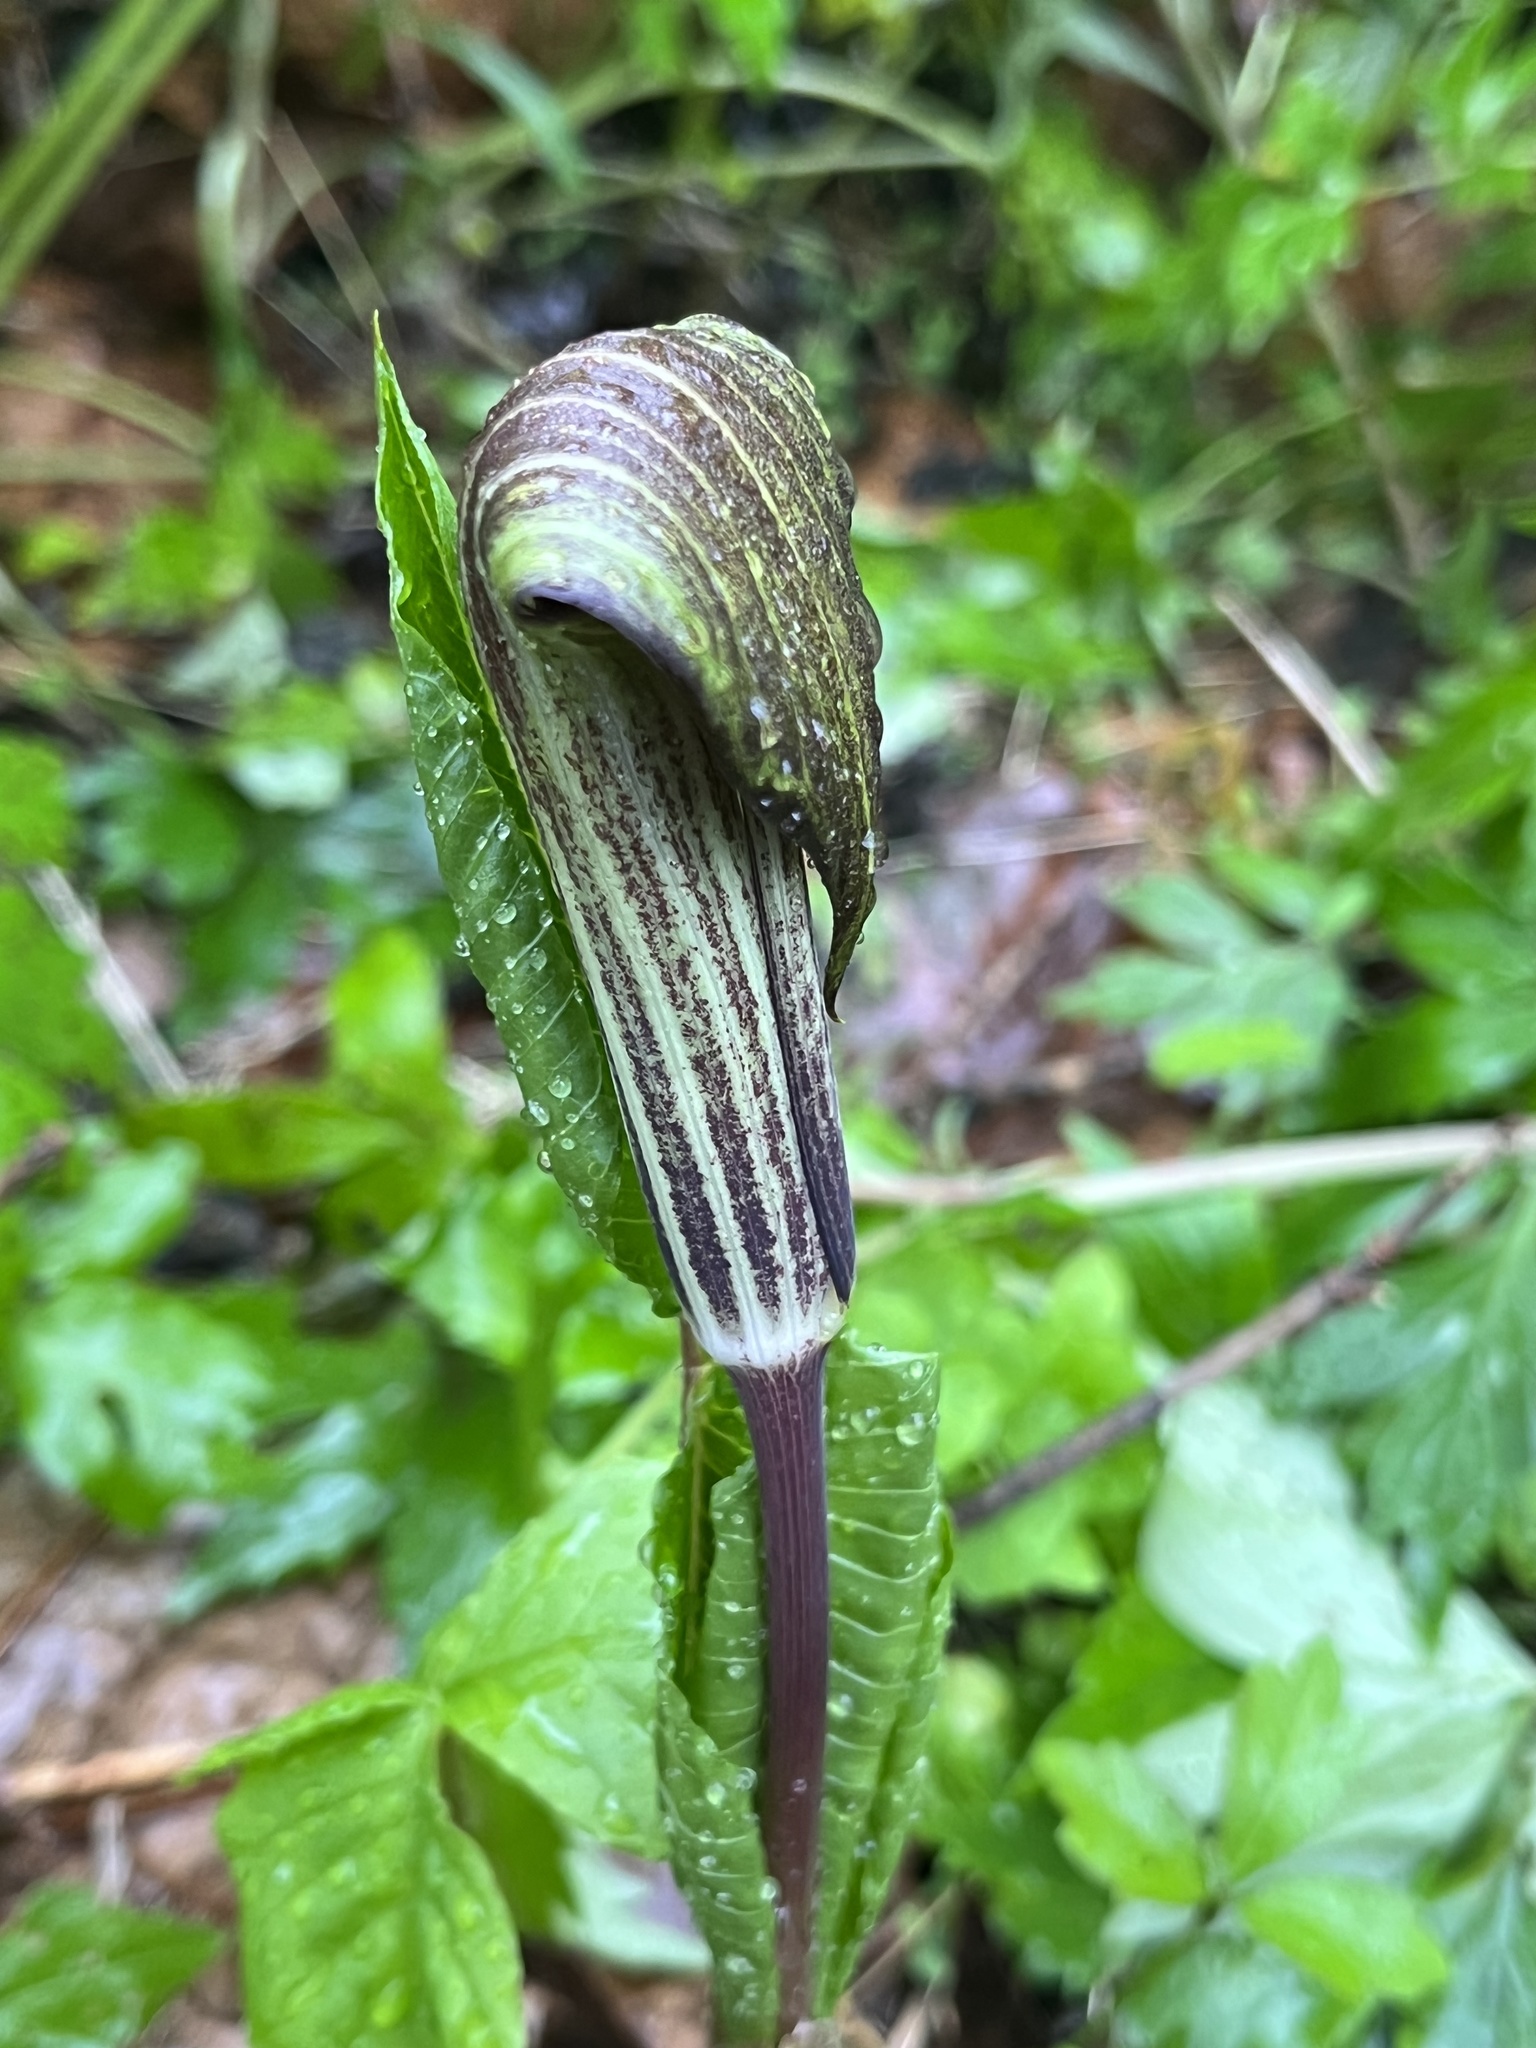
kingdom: Plantae
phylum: Tracheophyta
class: Liliopsida
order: Alismatales
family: Araceae
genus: Arisaema
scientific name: Arisaema triphyllum
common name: Jack-in-the-pulpit
